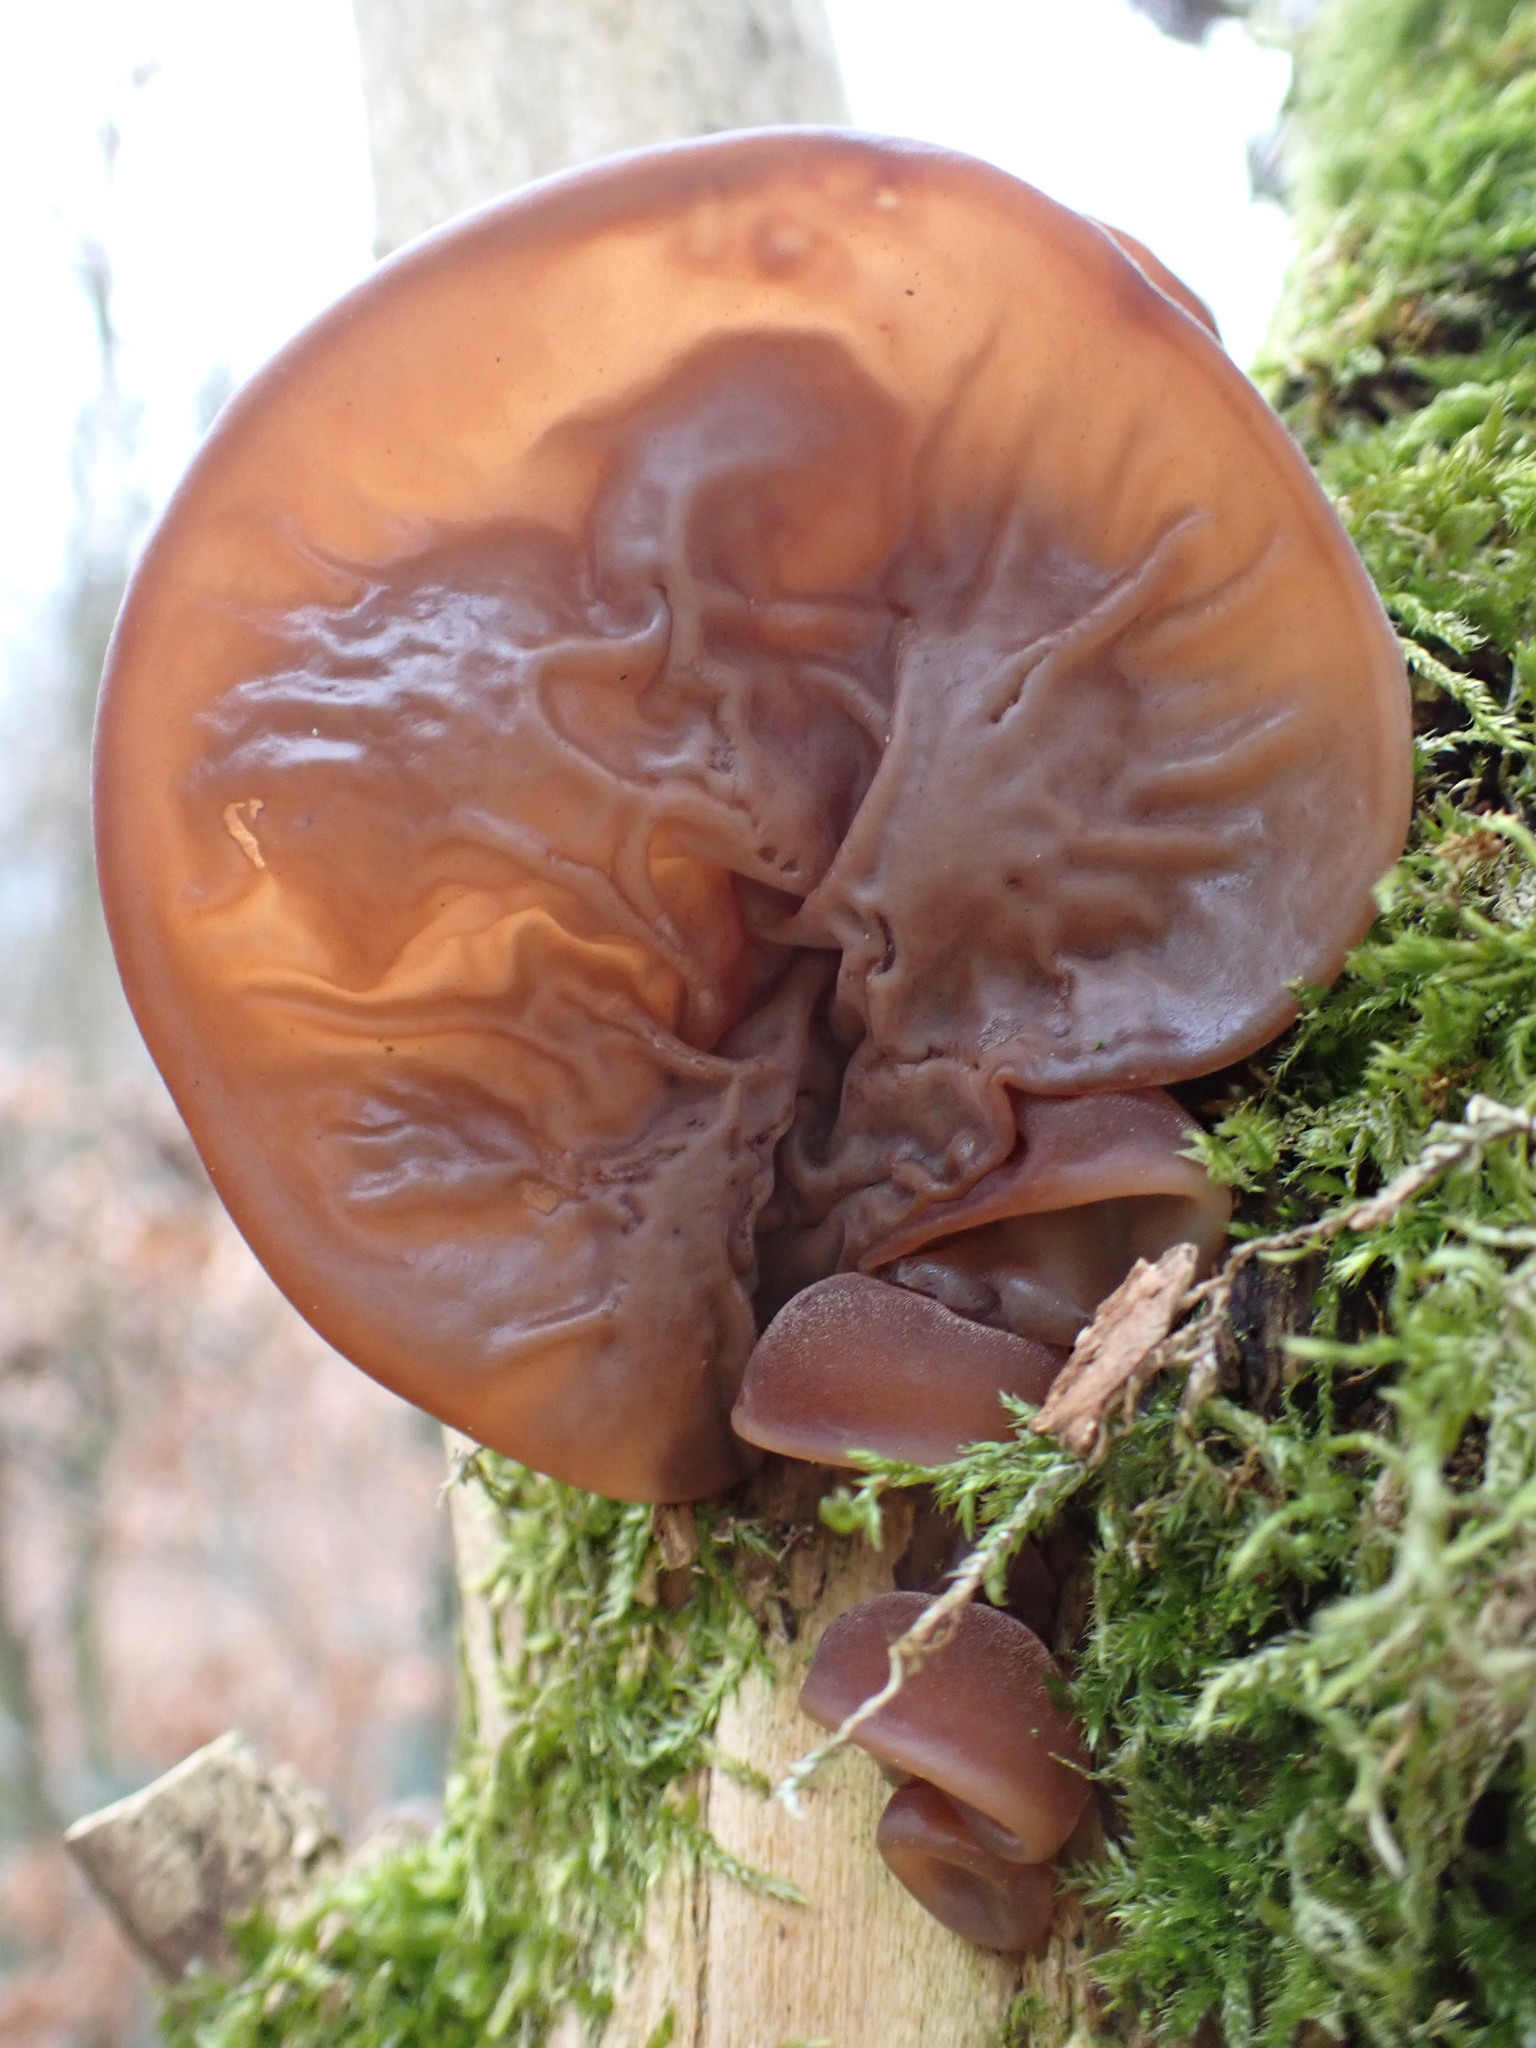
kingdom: Fungi
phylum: Basidiomycota
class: Agaricomycetes
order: Auriculariales
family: Auriculariaceae
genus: Auricularia
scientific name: Auricularia auricula-judae
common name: Jelly ear
